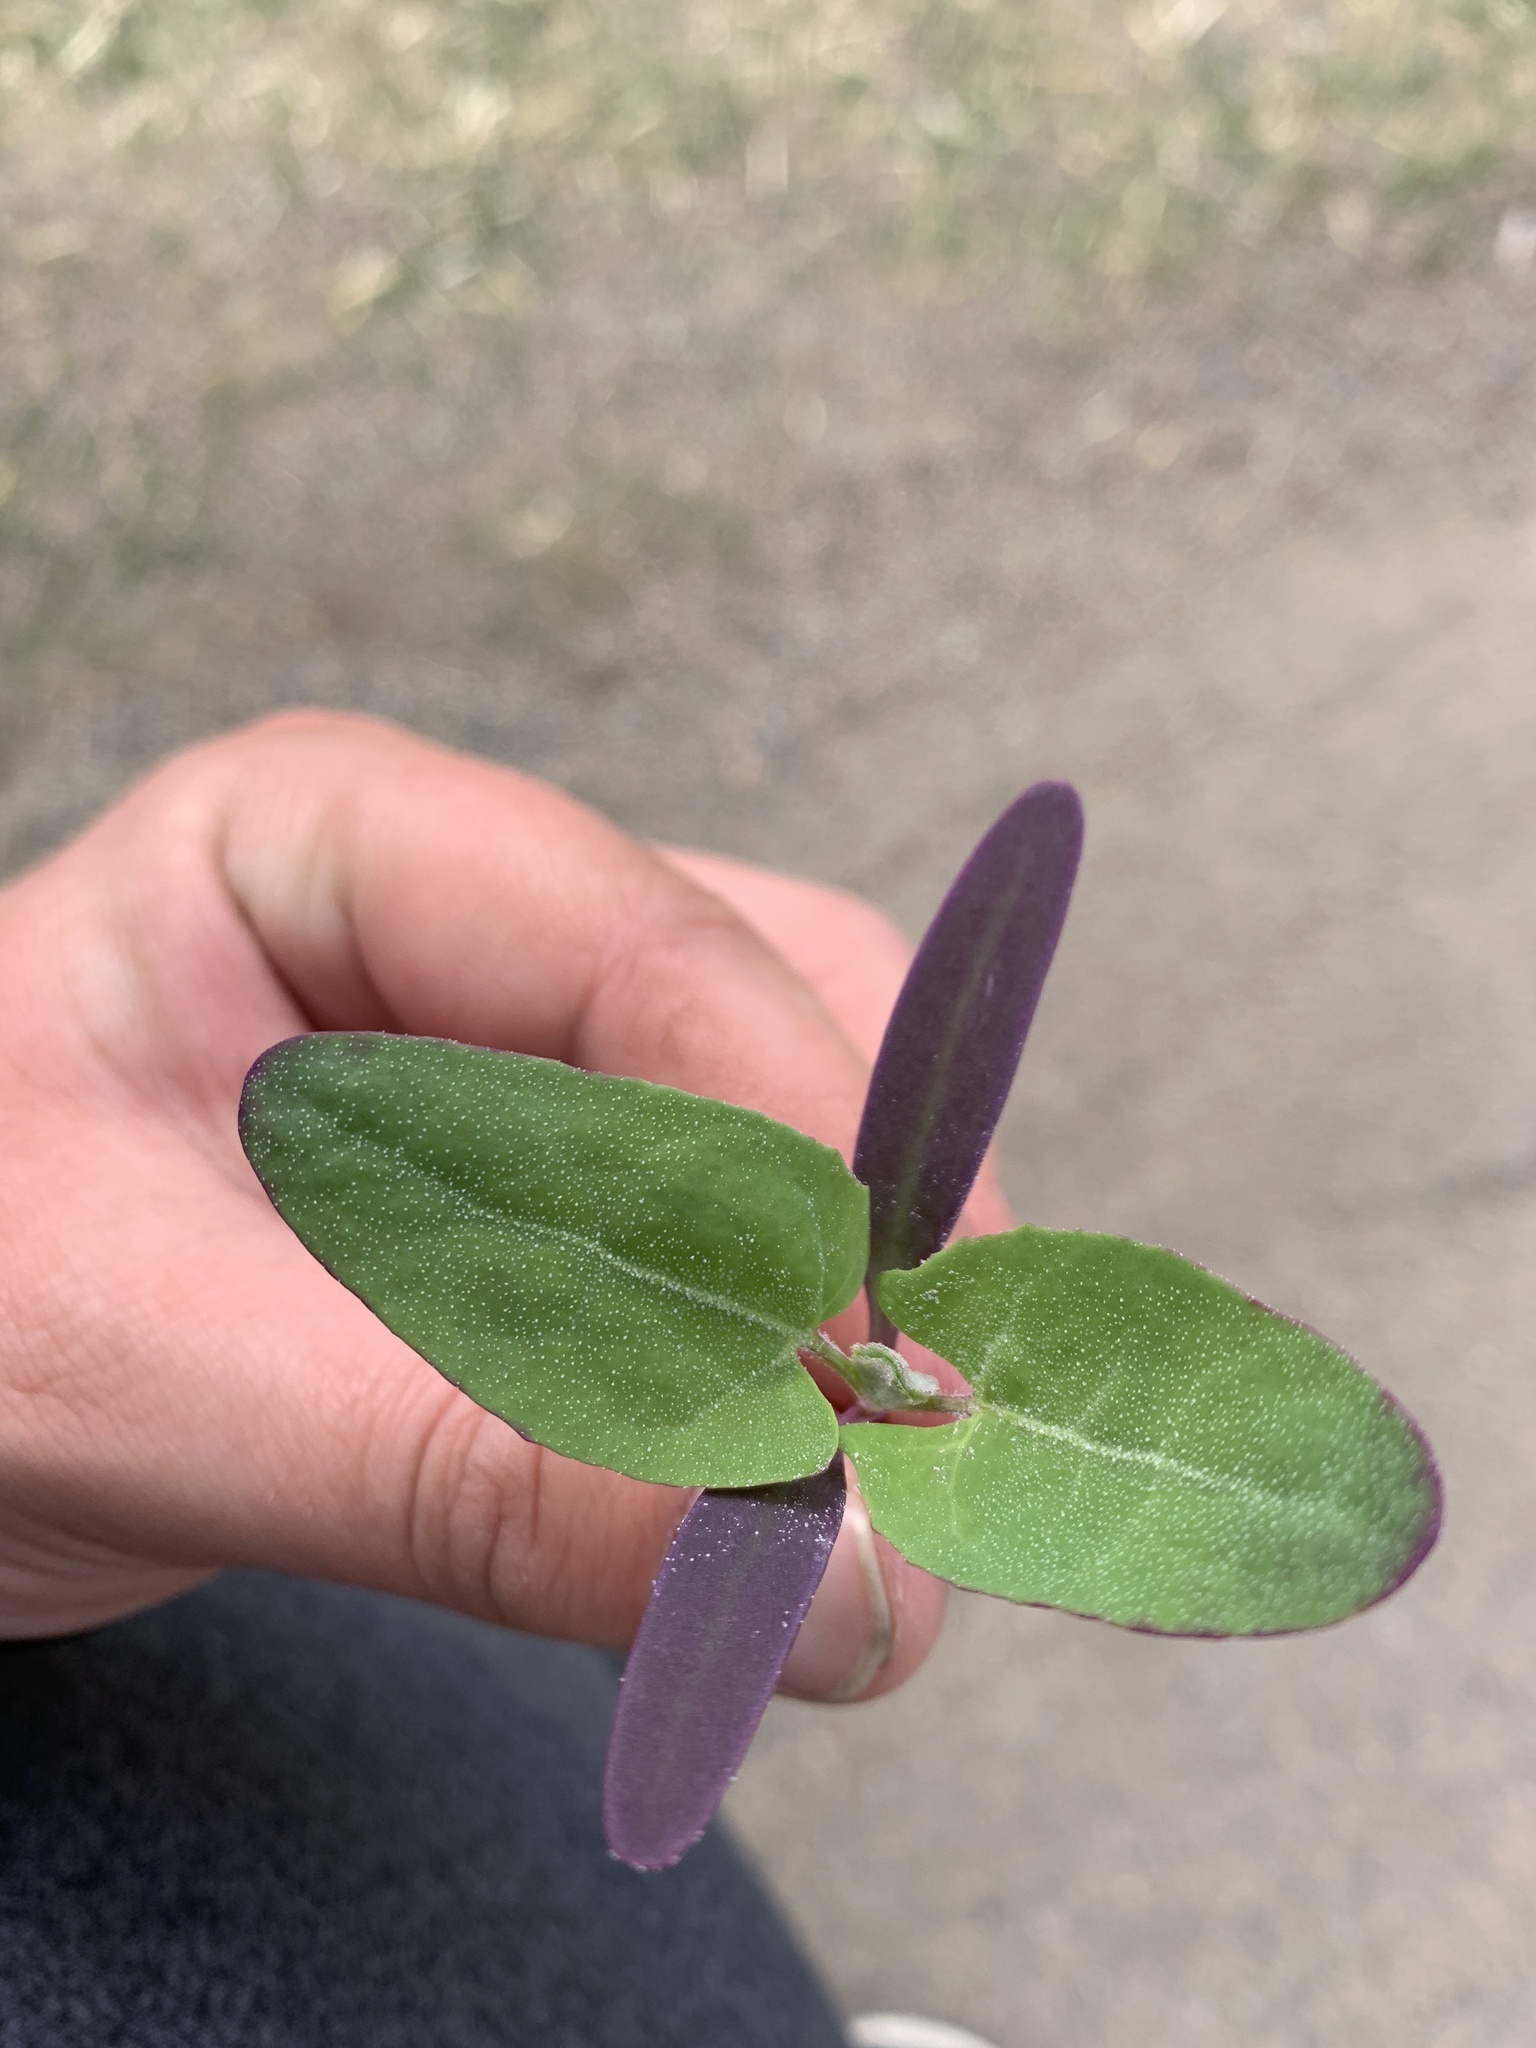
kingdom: Plantae
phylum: Tracheophyta
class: Magnoliopsida
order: Caryophyllales
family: Amaranthaceae
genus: Atriplex
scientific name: Atriplex hortensis
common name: Garden orache
